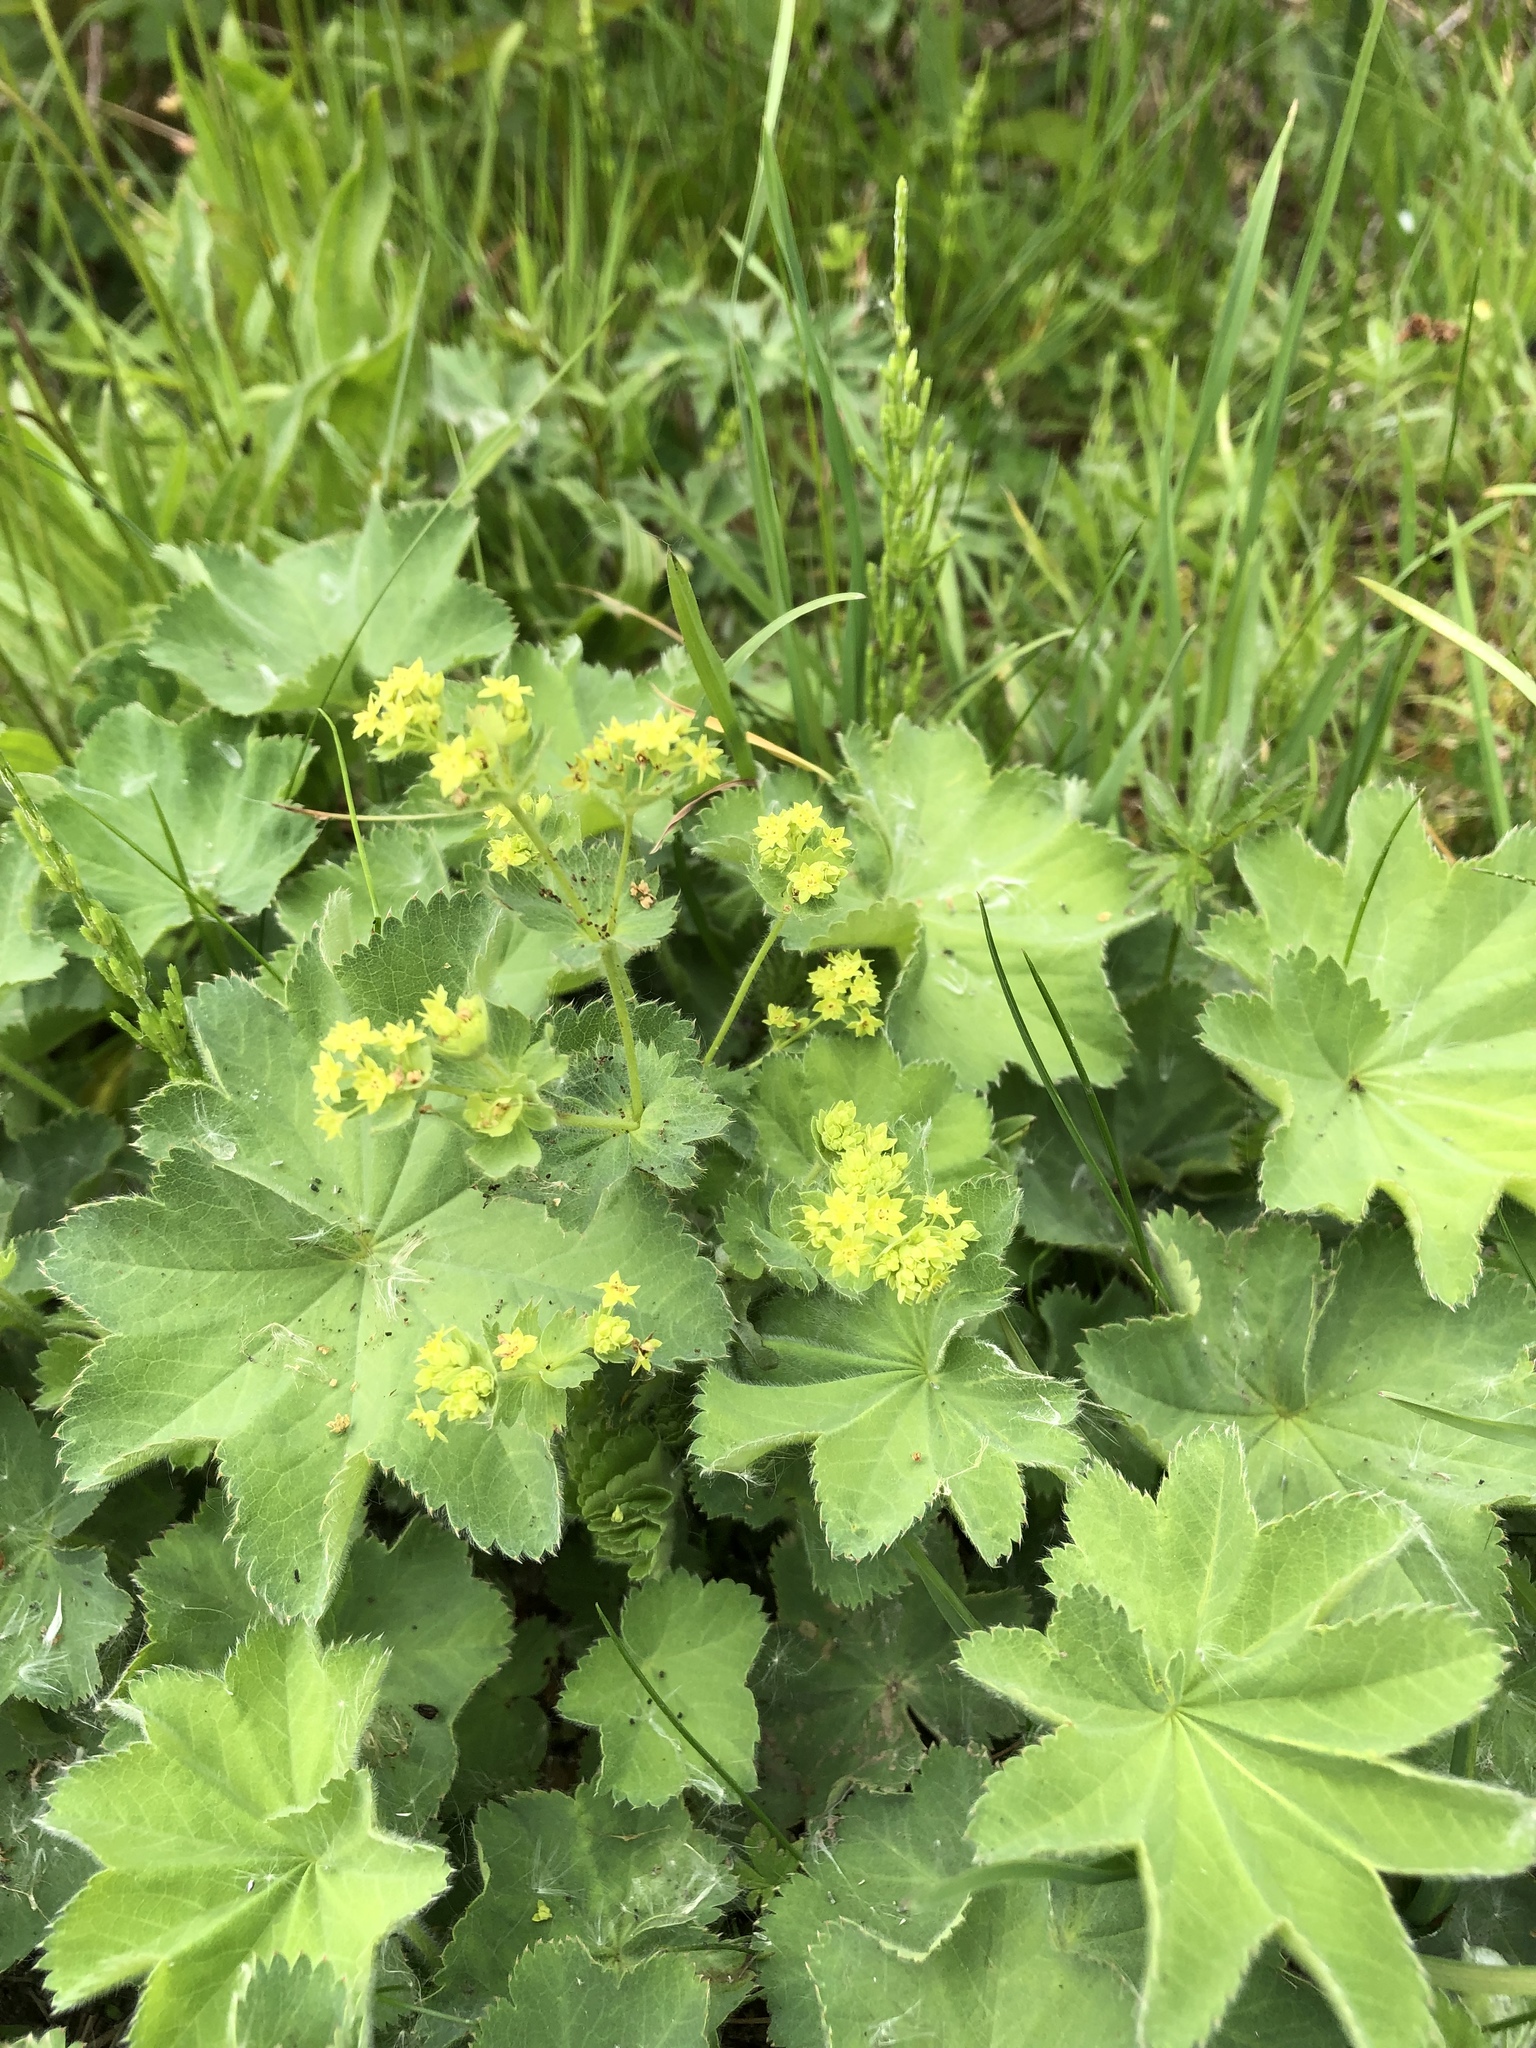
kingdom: Plantae
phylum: Tracheophyta
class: Magnoliopsida
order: Rosales
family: Rosaceae
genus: Alchemilla
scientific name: Alchemilla mollis
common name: Lady's-mantle
